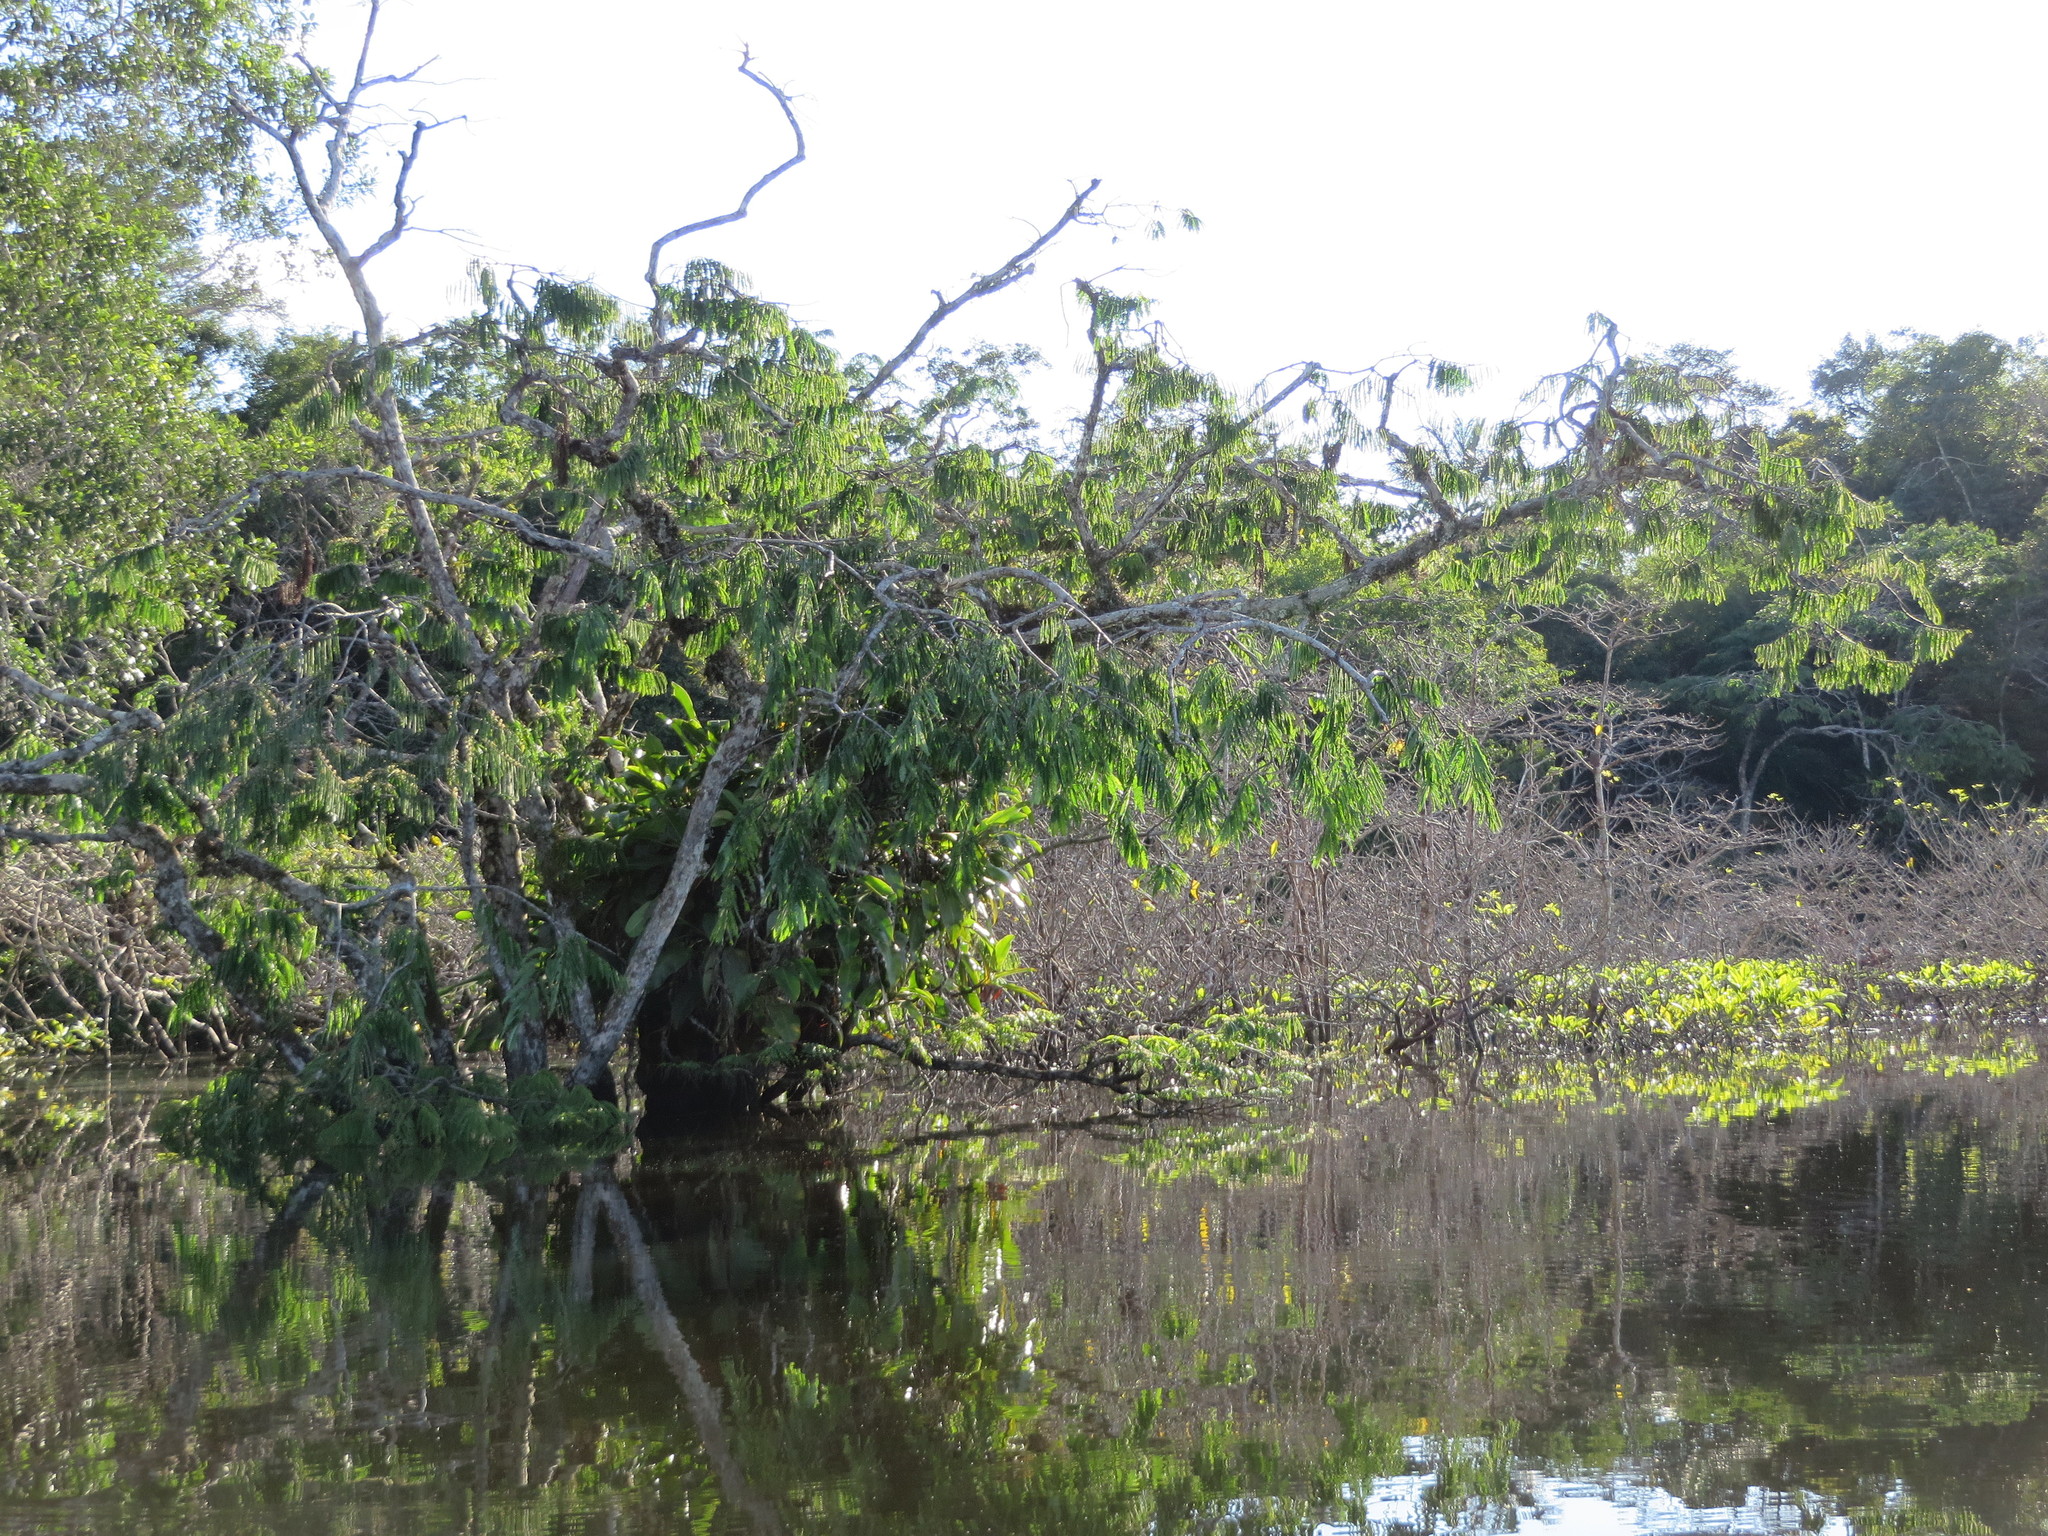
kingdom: Plantae
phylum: Tracheophyta
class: Magnoliopsida
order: Fabales
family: Fabaceae
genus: Macrolobium
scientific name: Macrolobium acaciifolium
